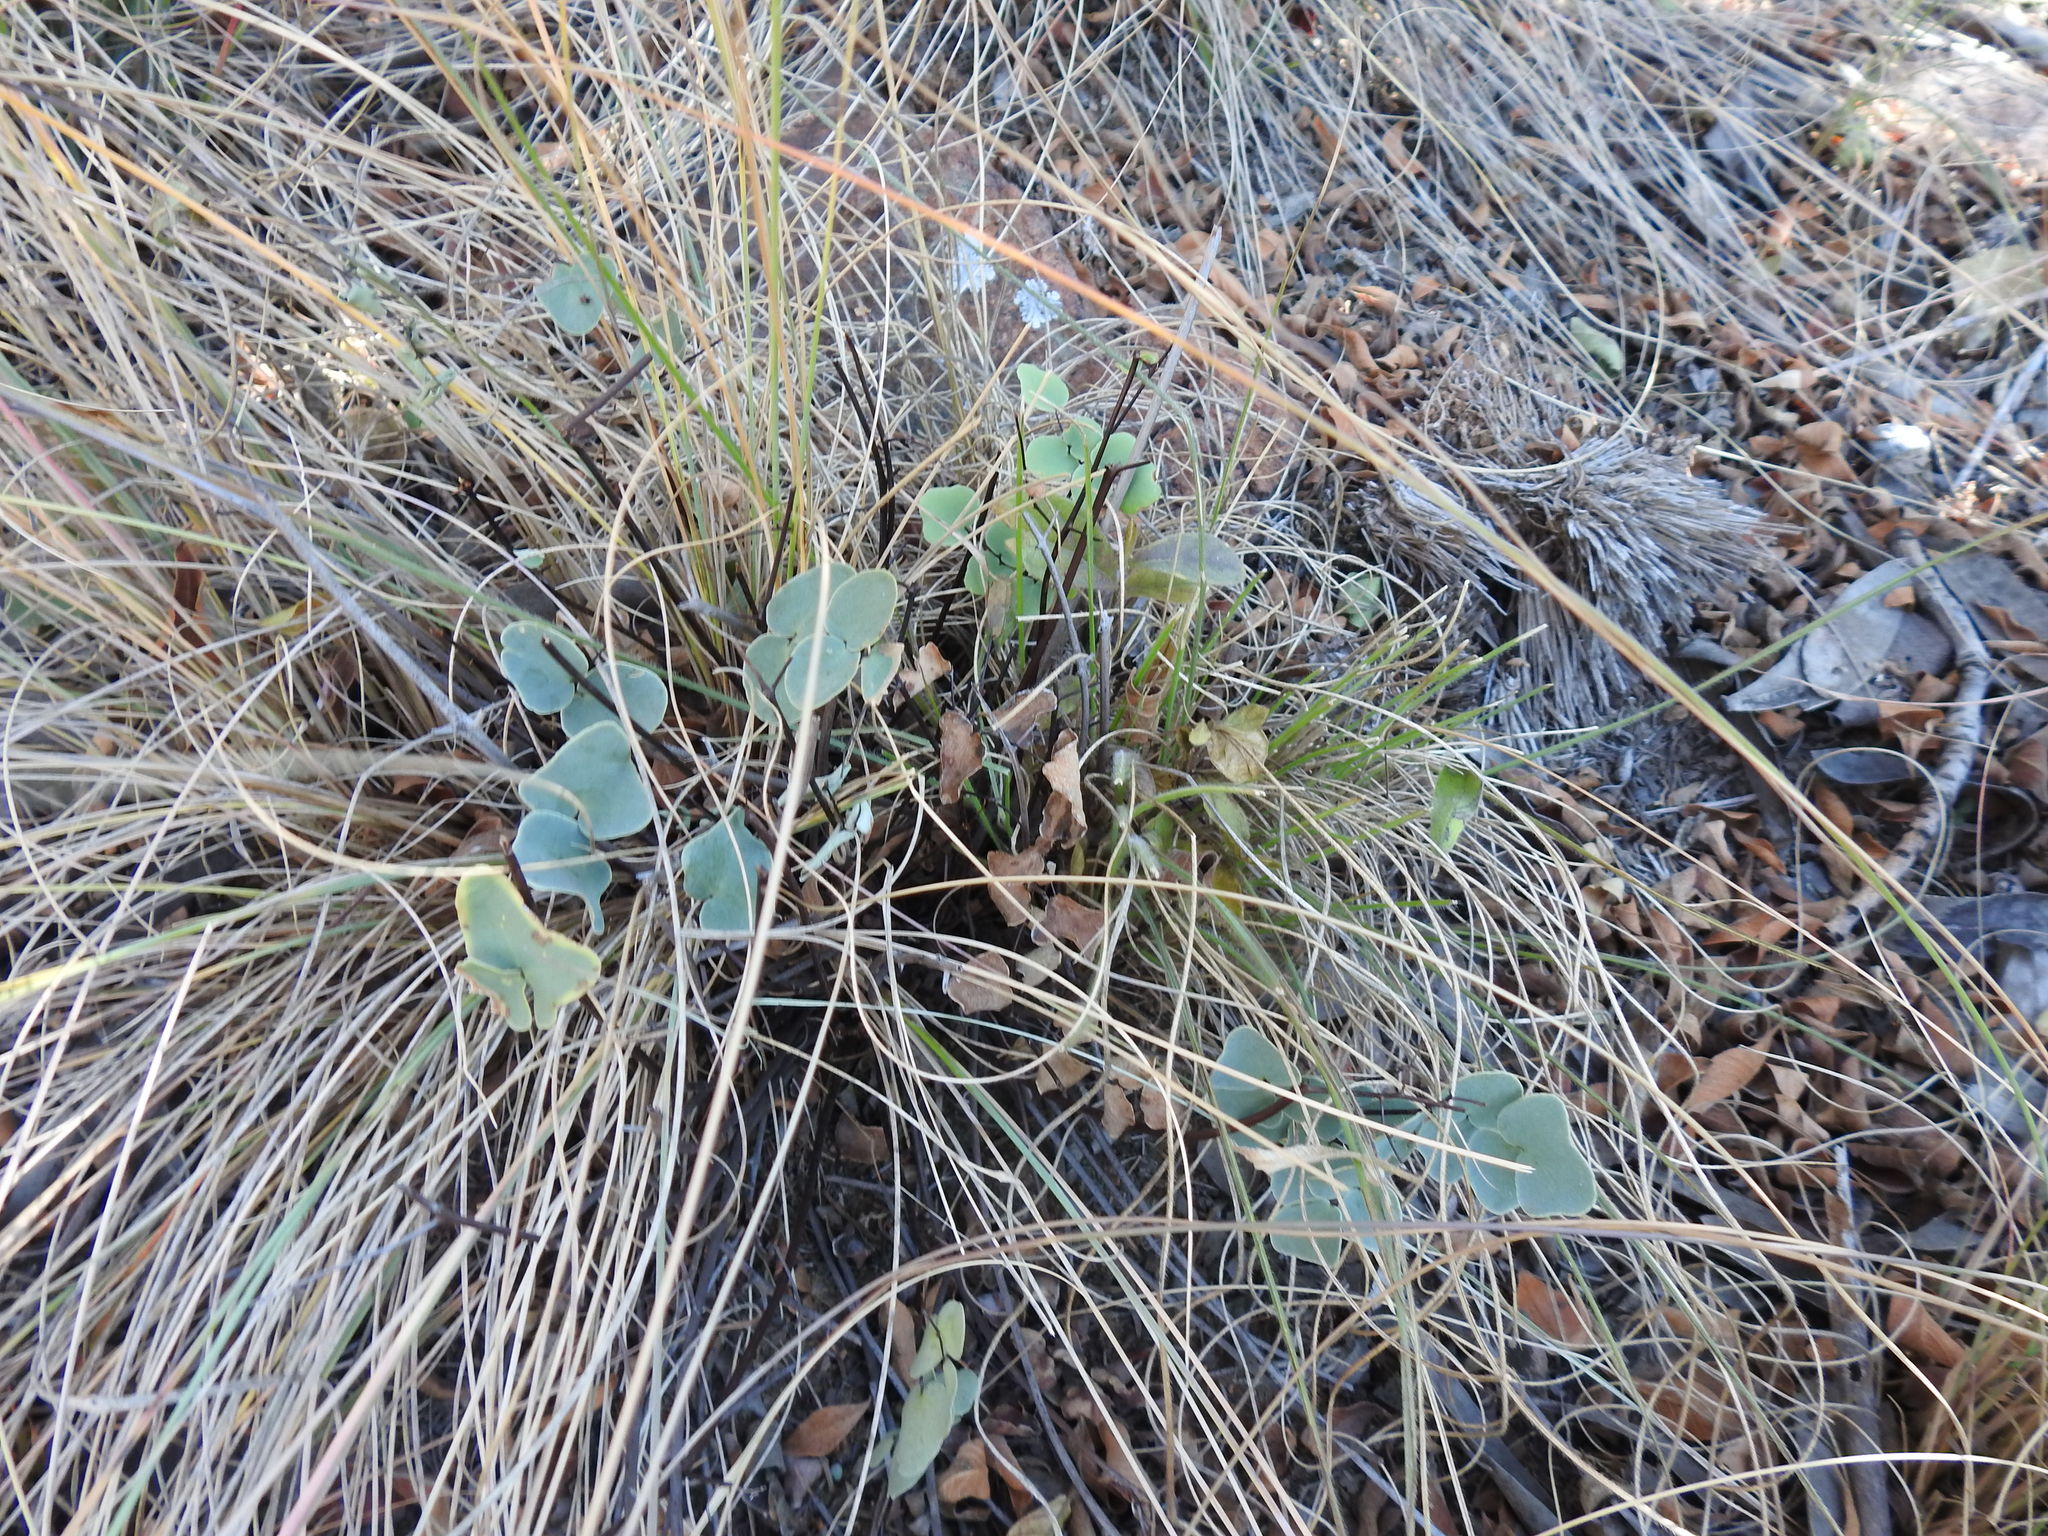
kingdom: Plantae
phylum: Tracheophyta
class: Polypodiopsida
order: Polypodiales
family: Pteridaceae
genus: Pellaea
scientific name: Pellaea calomelanos
